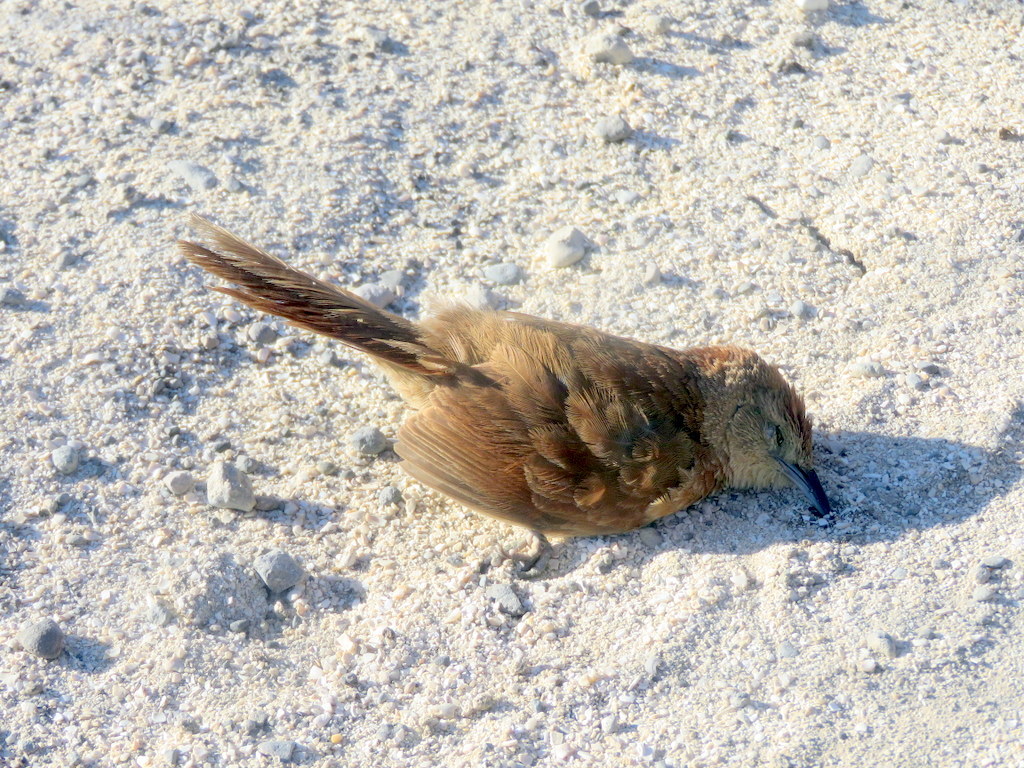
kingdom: Animalia
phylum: Chordata
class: Aves
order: Passeriformes
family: Furnariidae
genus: Phacellodomus
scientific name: Phacellodomus striaticollis
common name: Freckle-breasted thornbird
